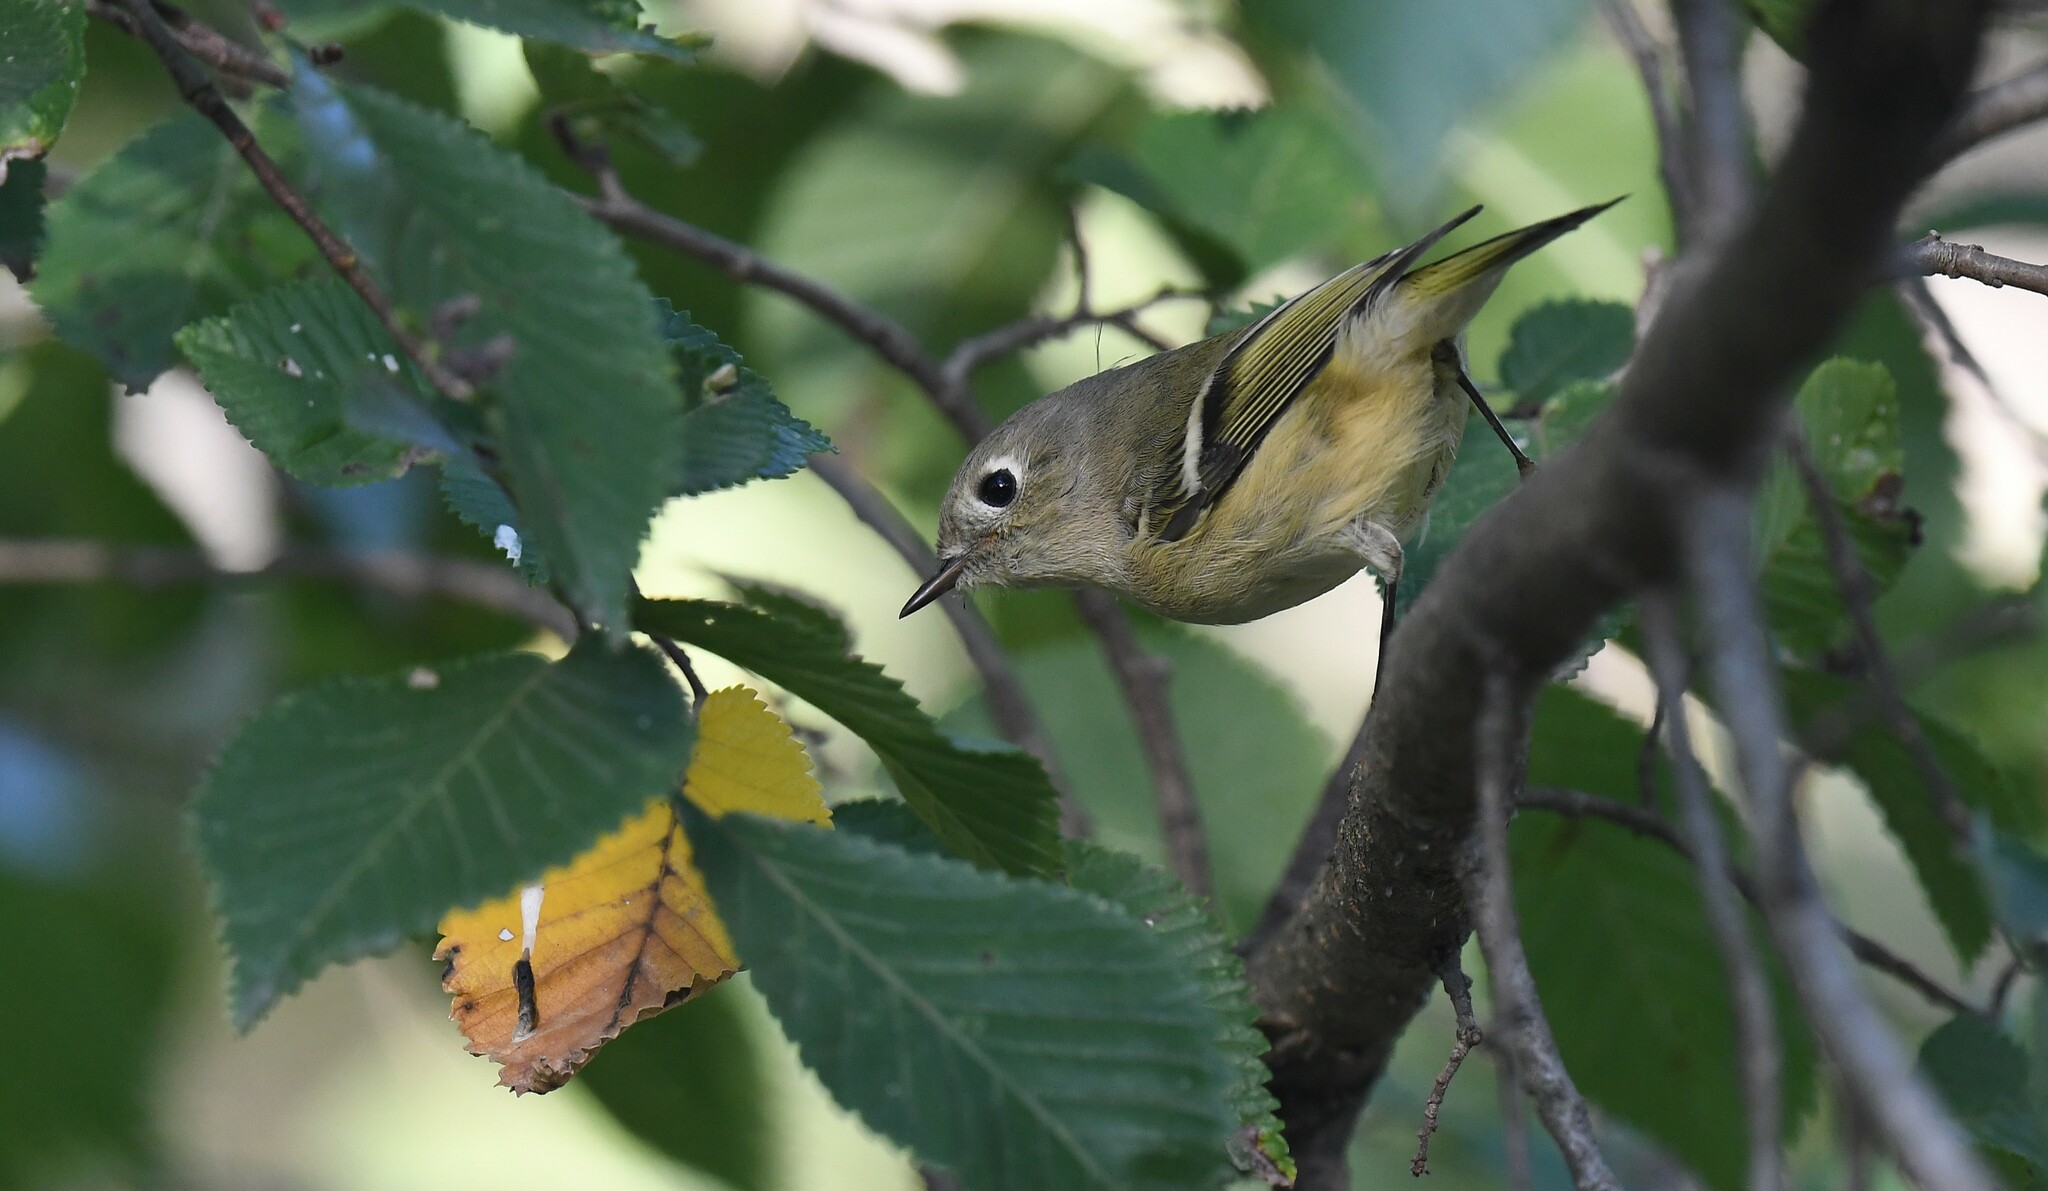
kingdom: Animalia
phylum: Chordata
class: Aves
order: Passeriformes
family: Regulidae
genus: Regulus
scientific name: Regulus calendula
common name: Ruby-crowned kinglet
